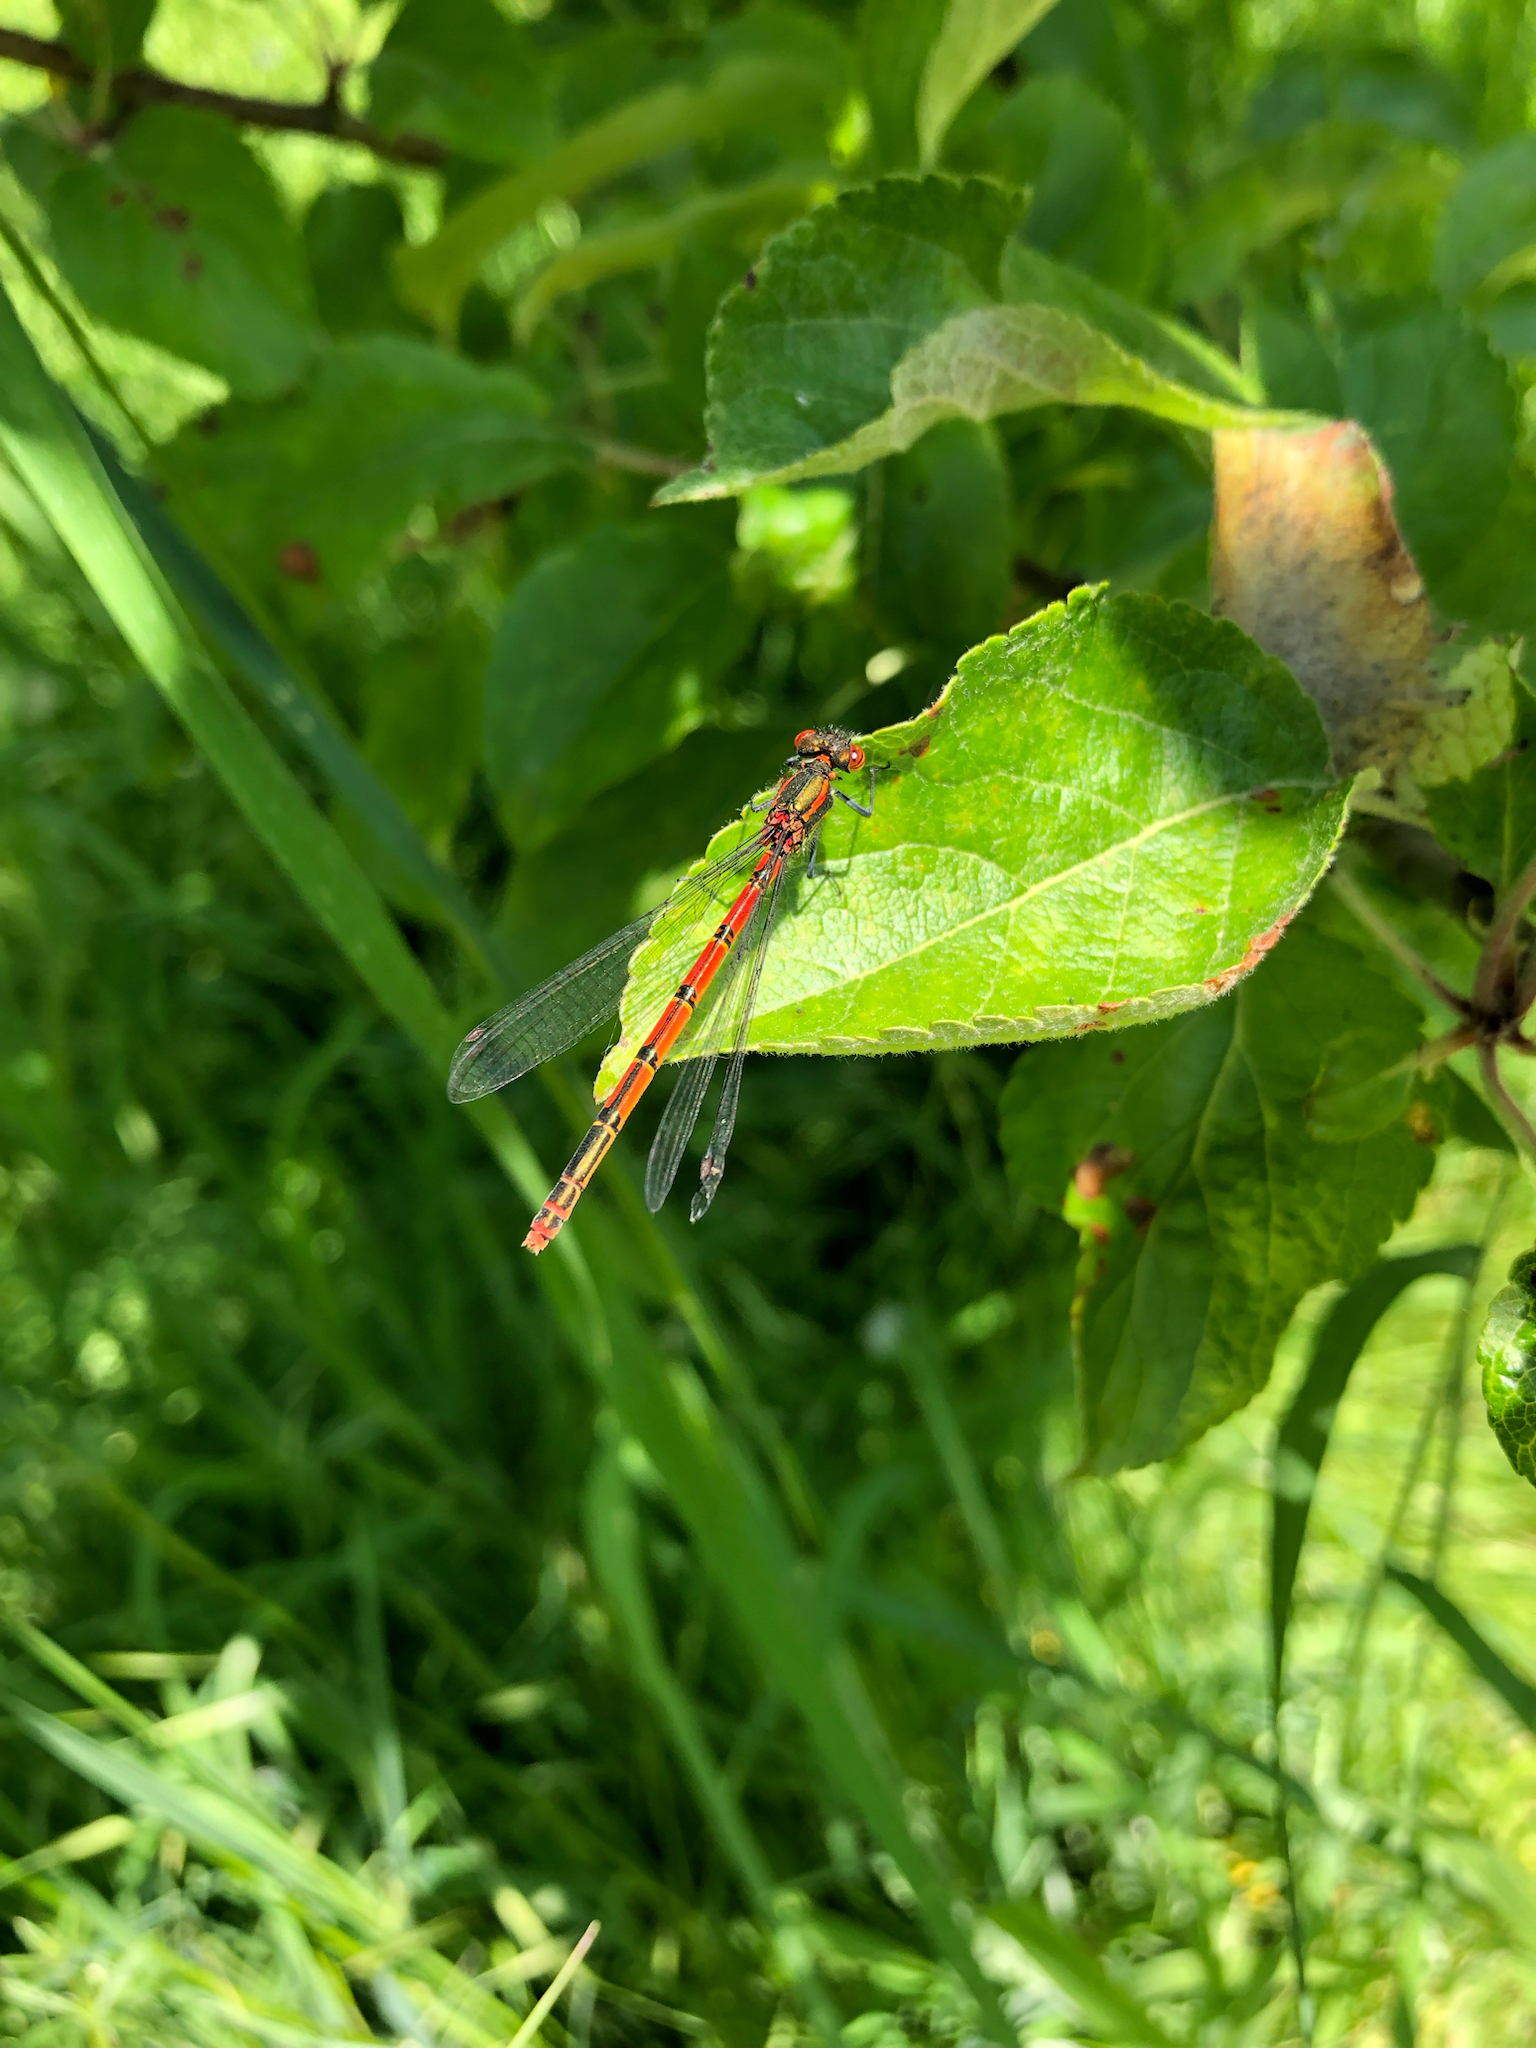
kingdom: Animalia
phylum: Arthropoda
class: Insecta
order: Odonata
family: Coenagrionidae
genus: Pyrrhosoma
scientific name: Pyrrhosoma nymphula
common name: Large red damsel
